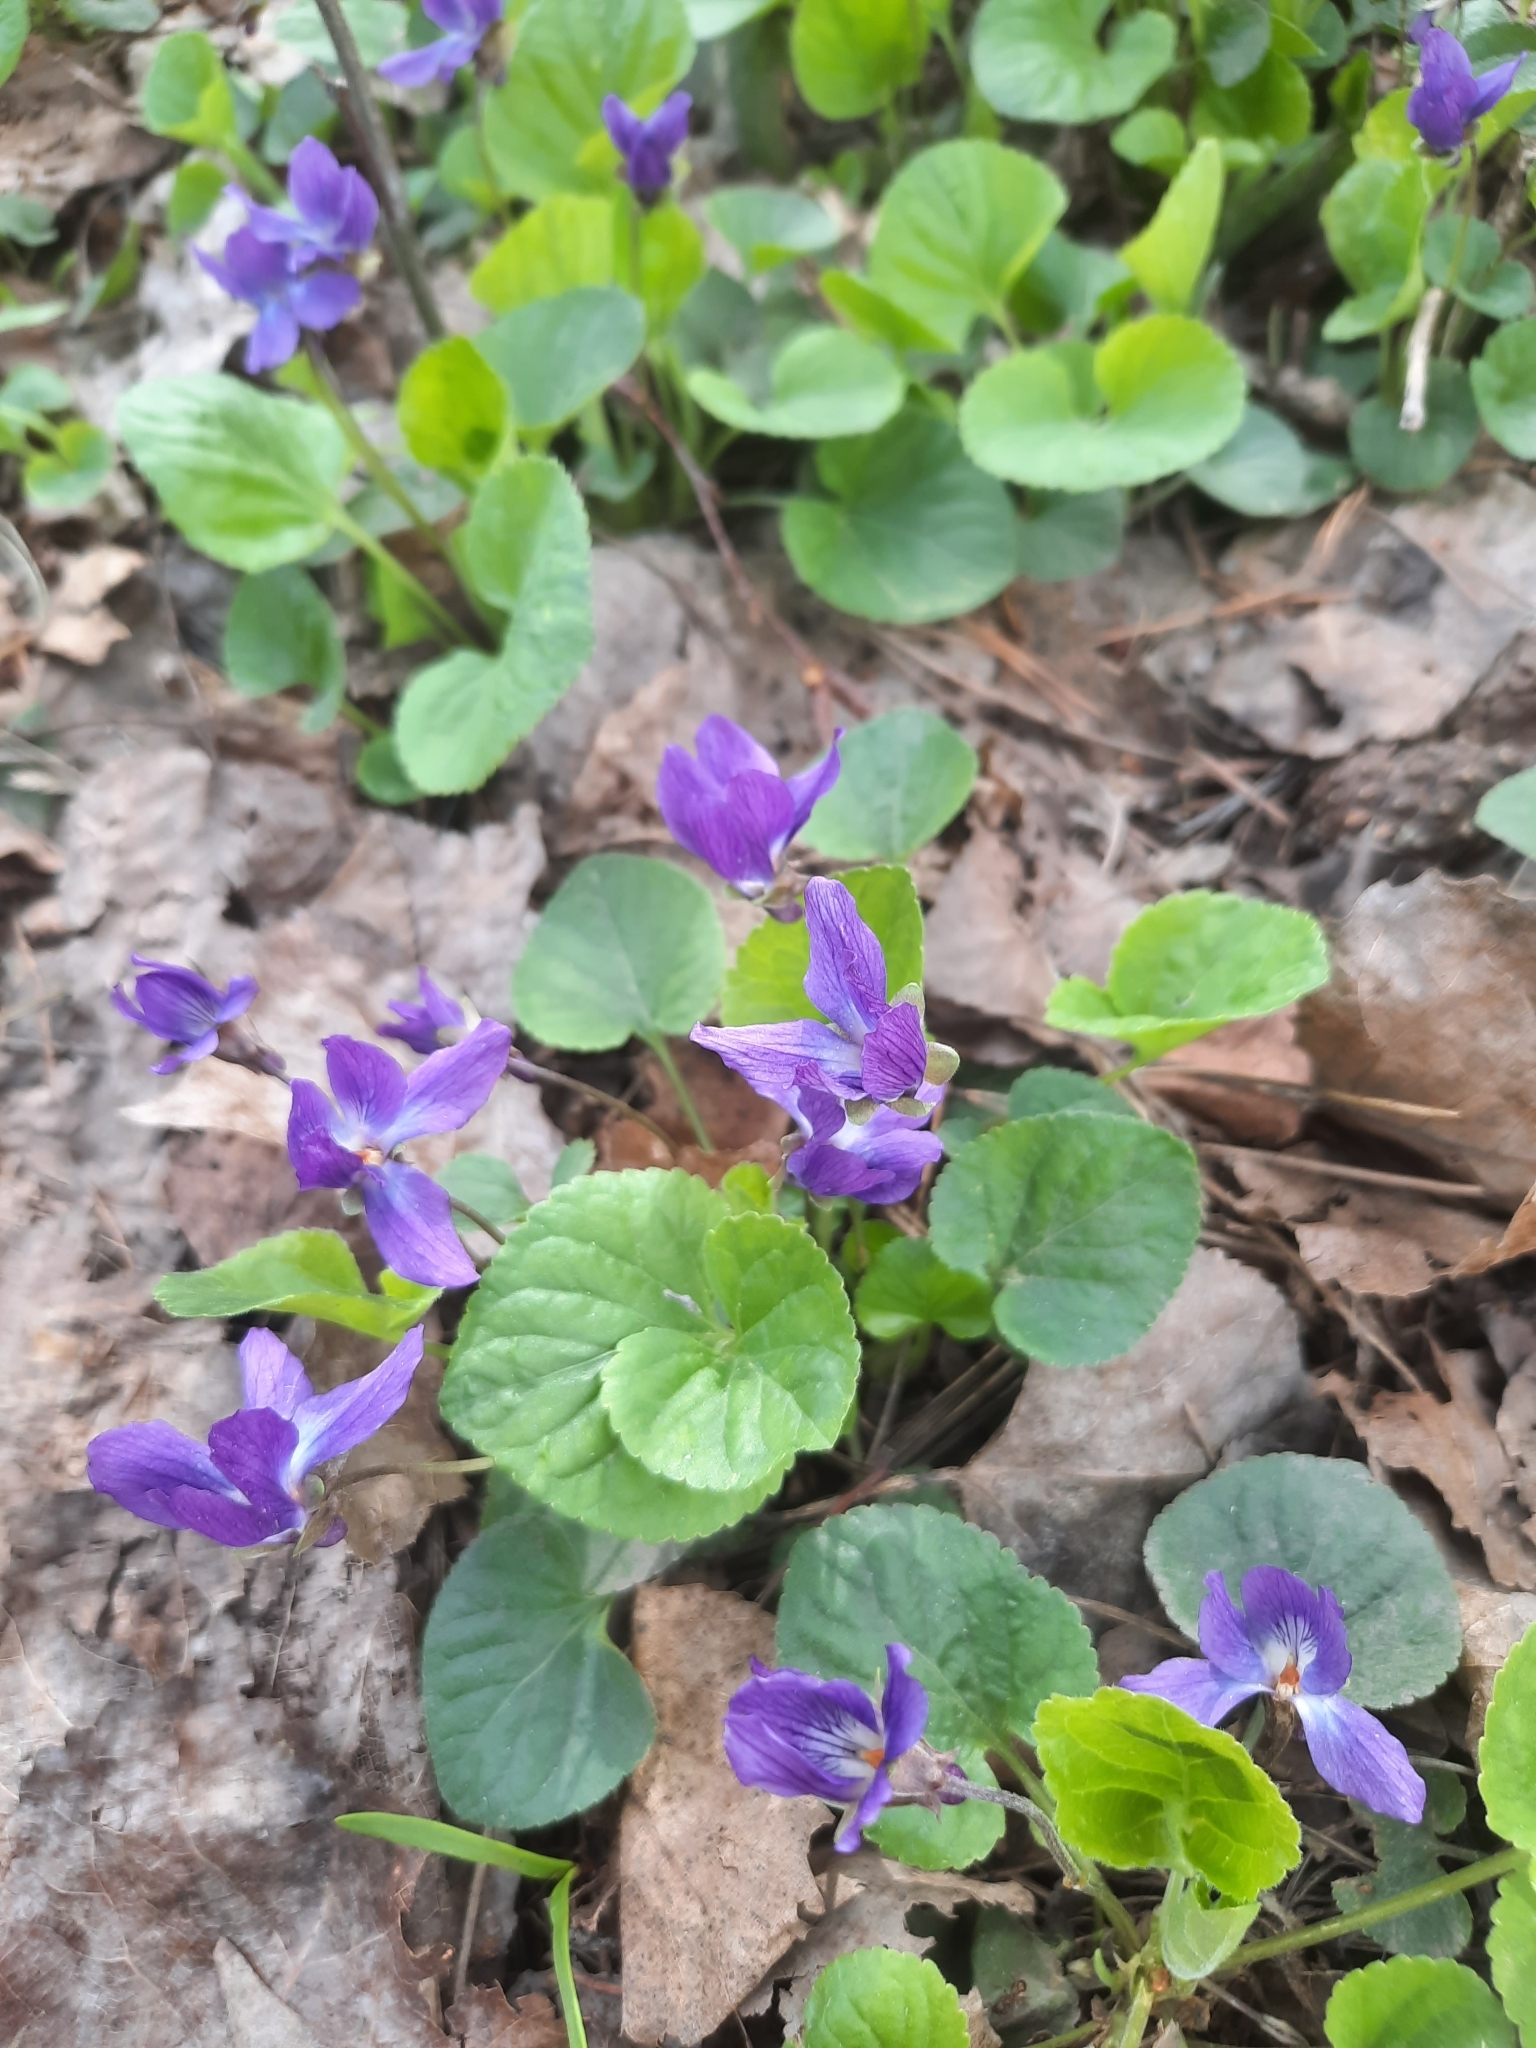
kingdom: Plantae
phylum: Tracheophyta
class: Magnoliopsida
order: Malpighiales
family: Violaceae
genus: Viola
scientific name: Viola odorata
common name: Sweet violet
